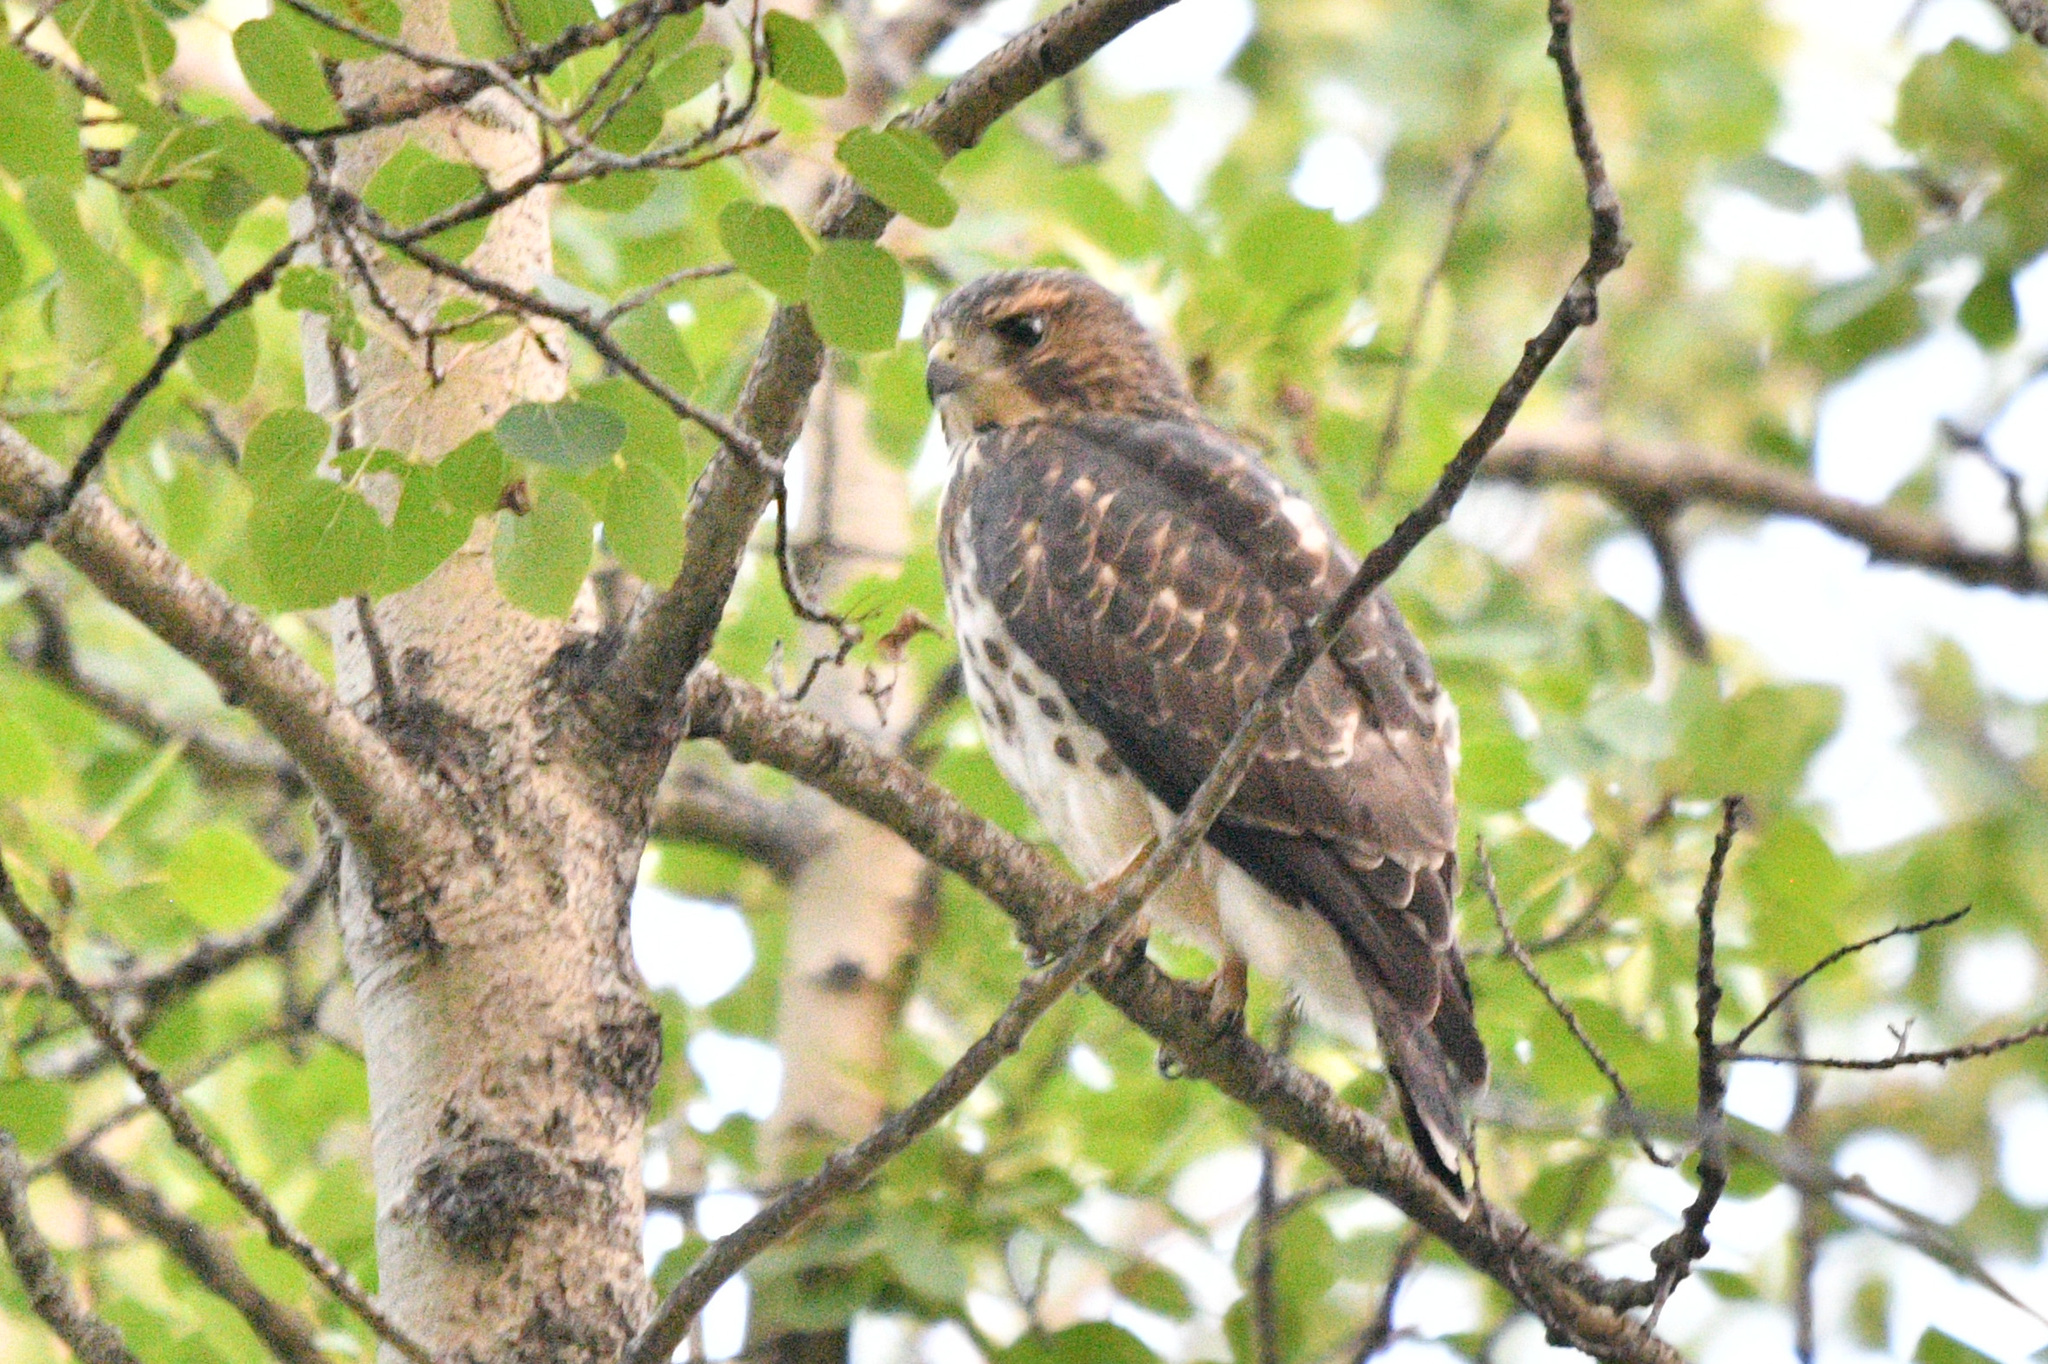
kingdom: Animalia
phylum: Chordata
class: Aves
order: Accipitriformes
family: Accipitridae
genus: Buteo
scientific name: Buteo platypterus
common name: Broad-winged hawk
